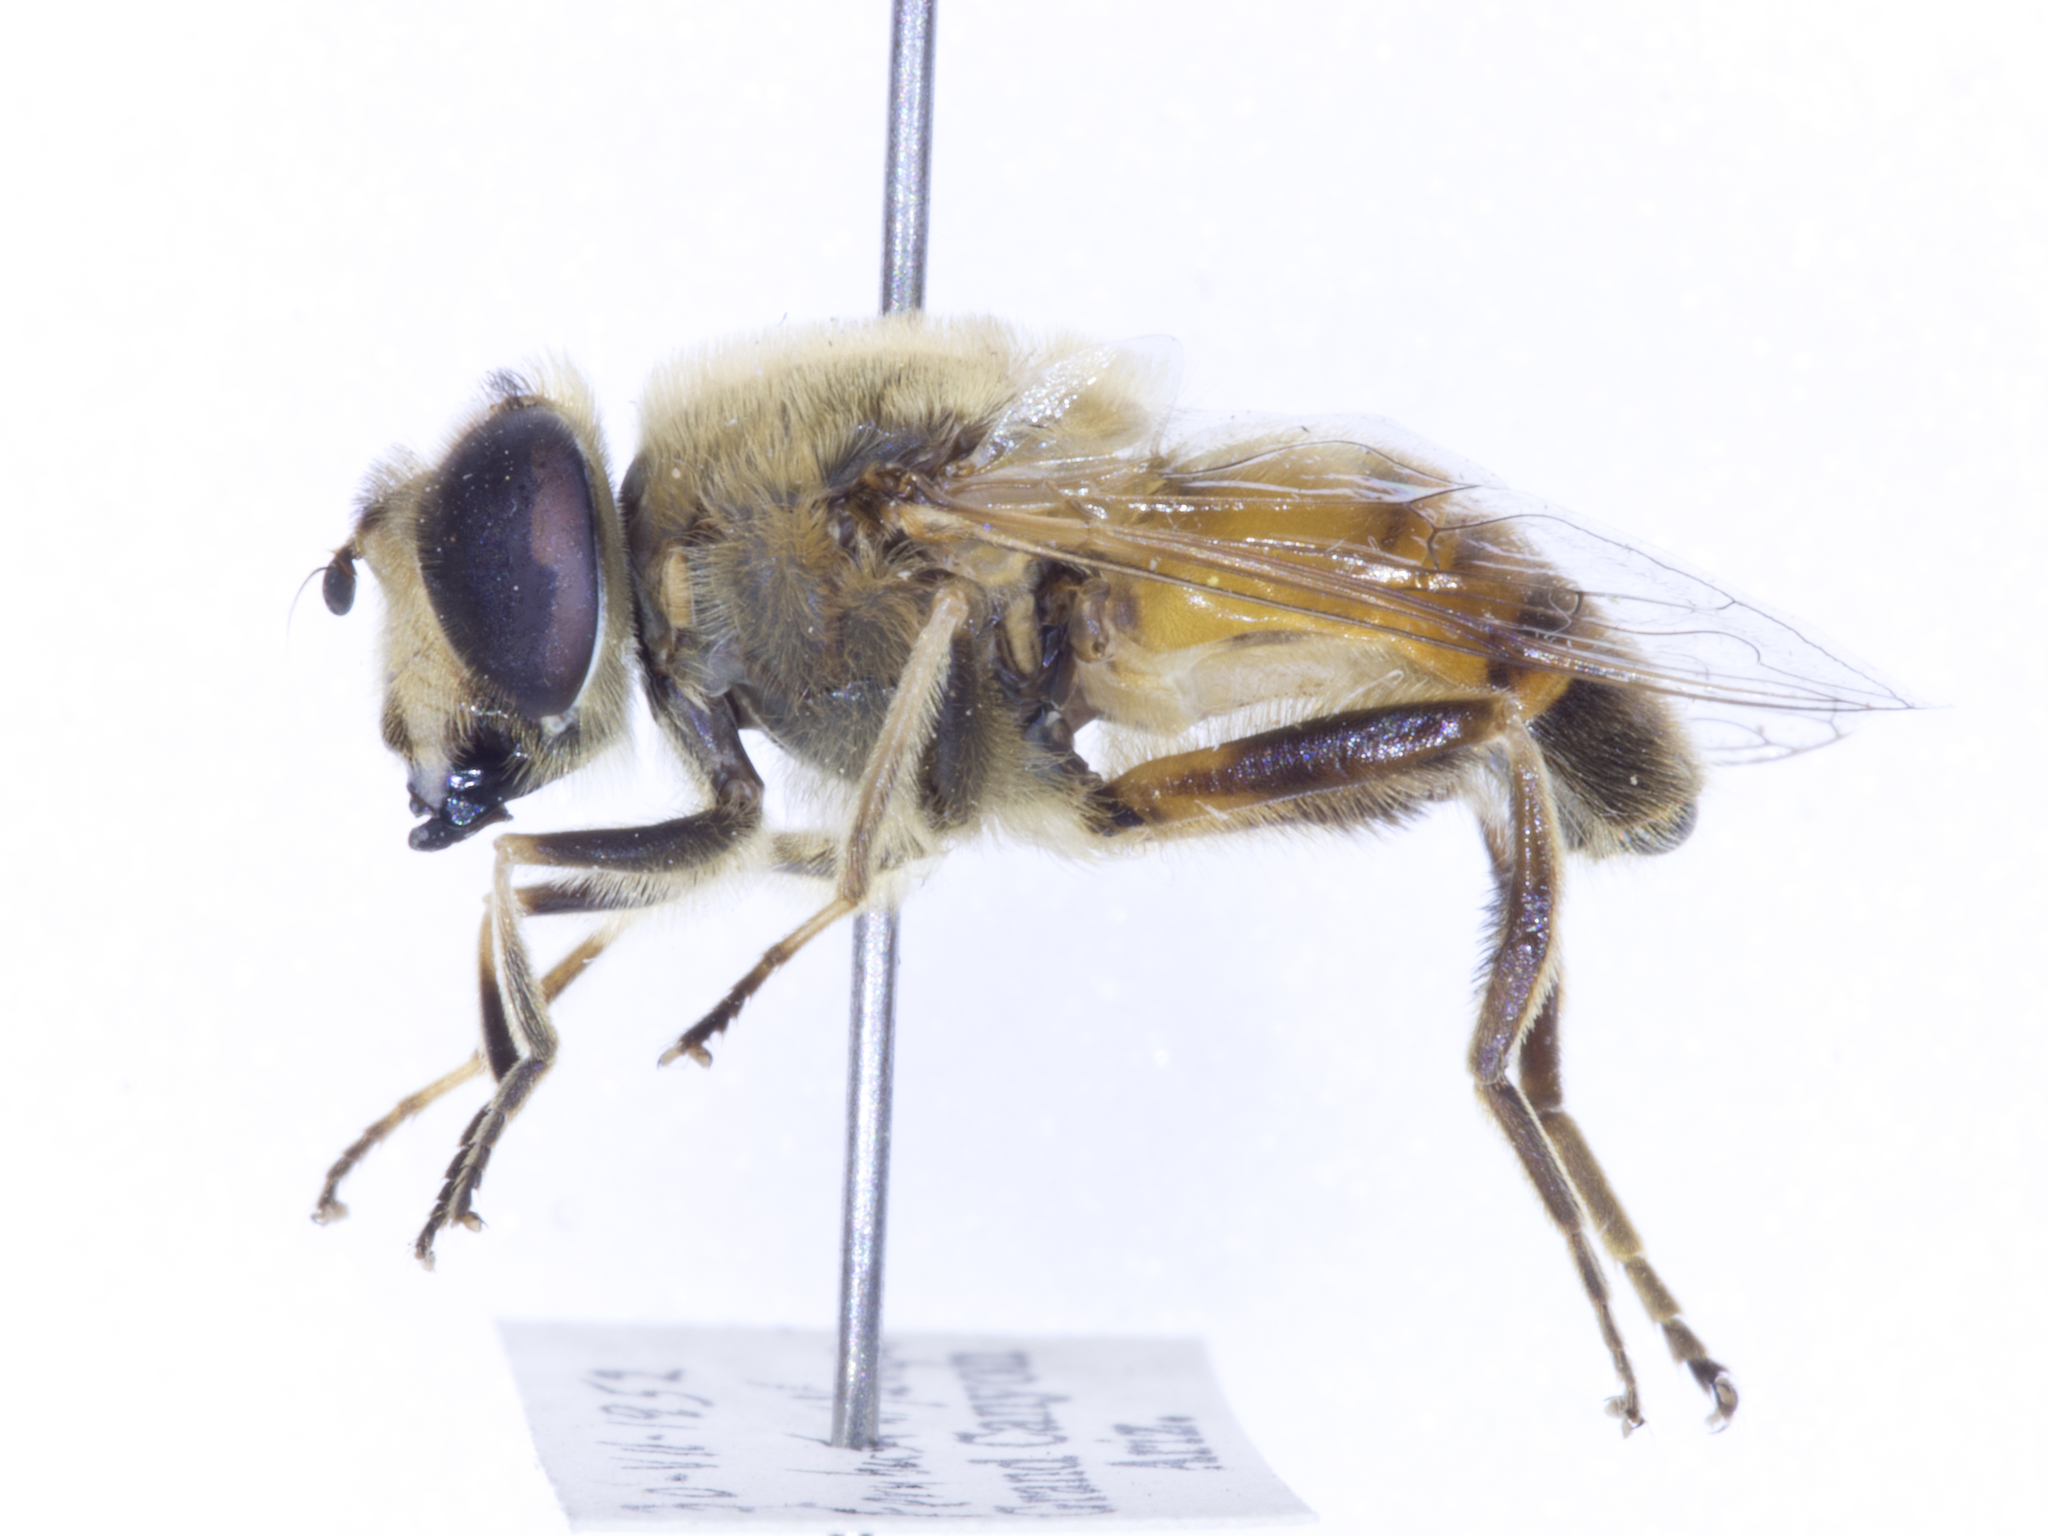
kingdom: Animalia
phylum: Arthropoda
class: Insecta
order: Diptera
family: Syrphidae
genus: Eristalis
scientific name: Eristalis tenax
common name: Drone fly
